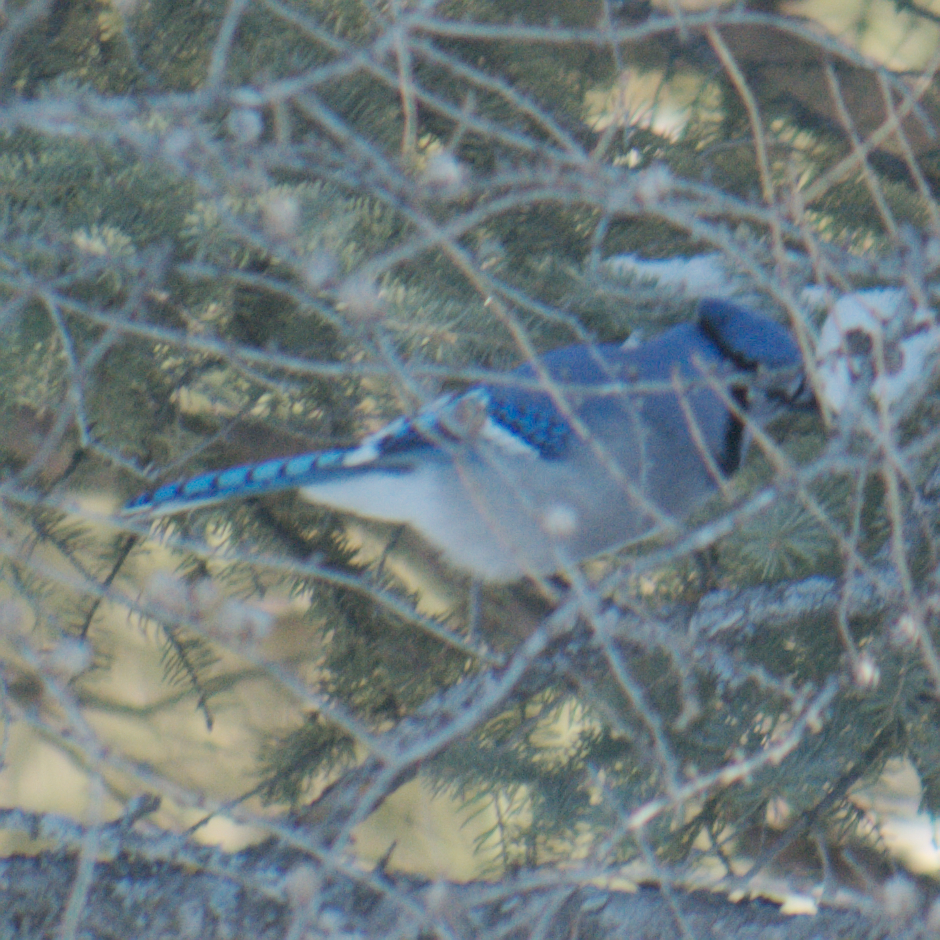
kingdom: Animalia
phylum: Chordata
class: Aves
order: Passeriformes
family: Corvidae
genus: Cyanocitta
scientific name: Cyanocitta cristata
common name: Blue jay
